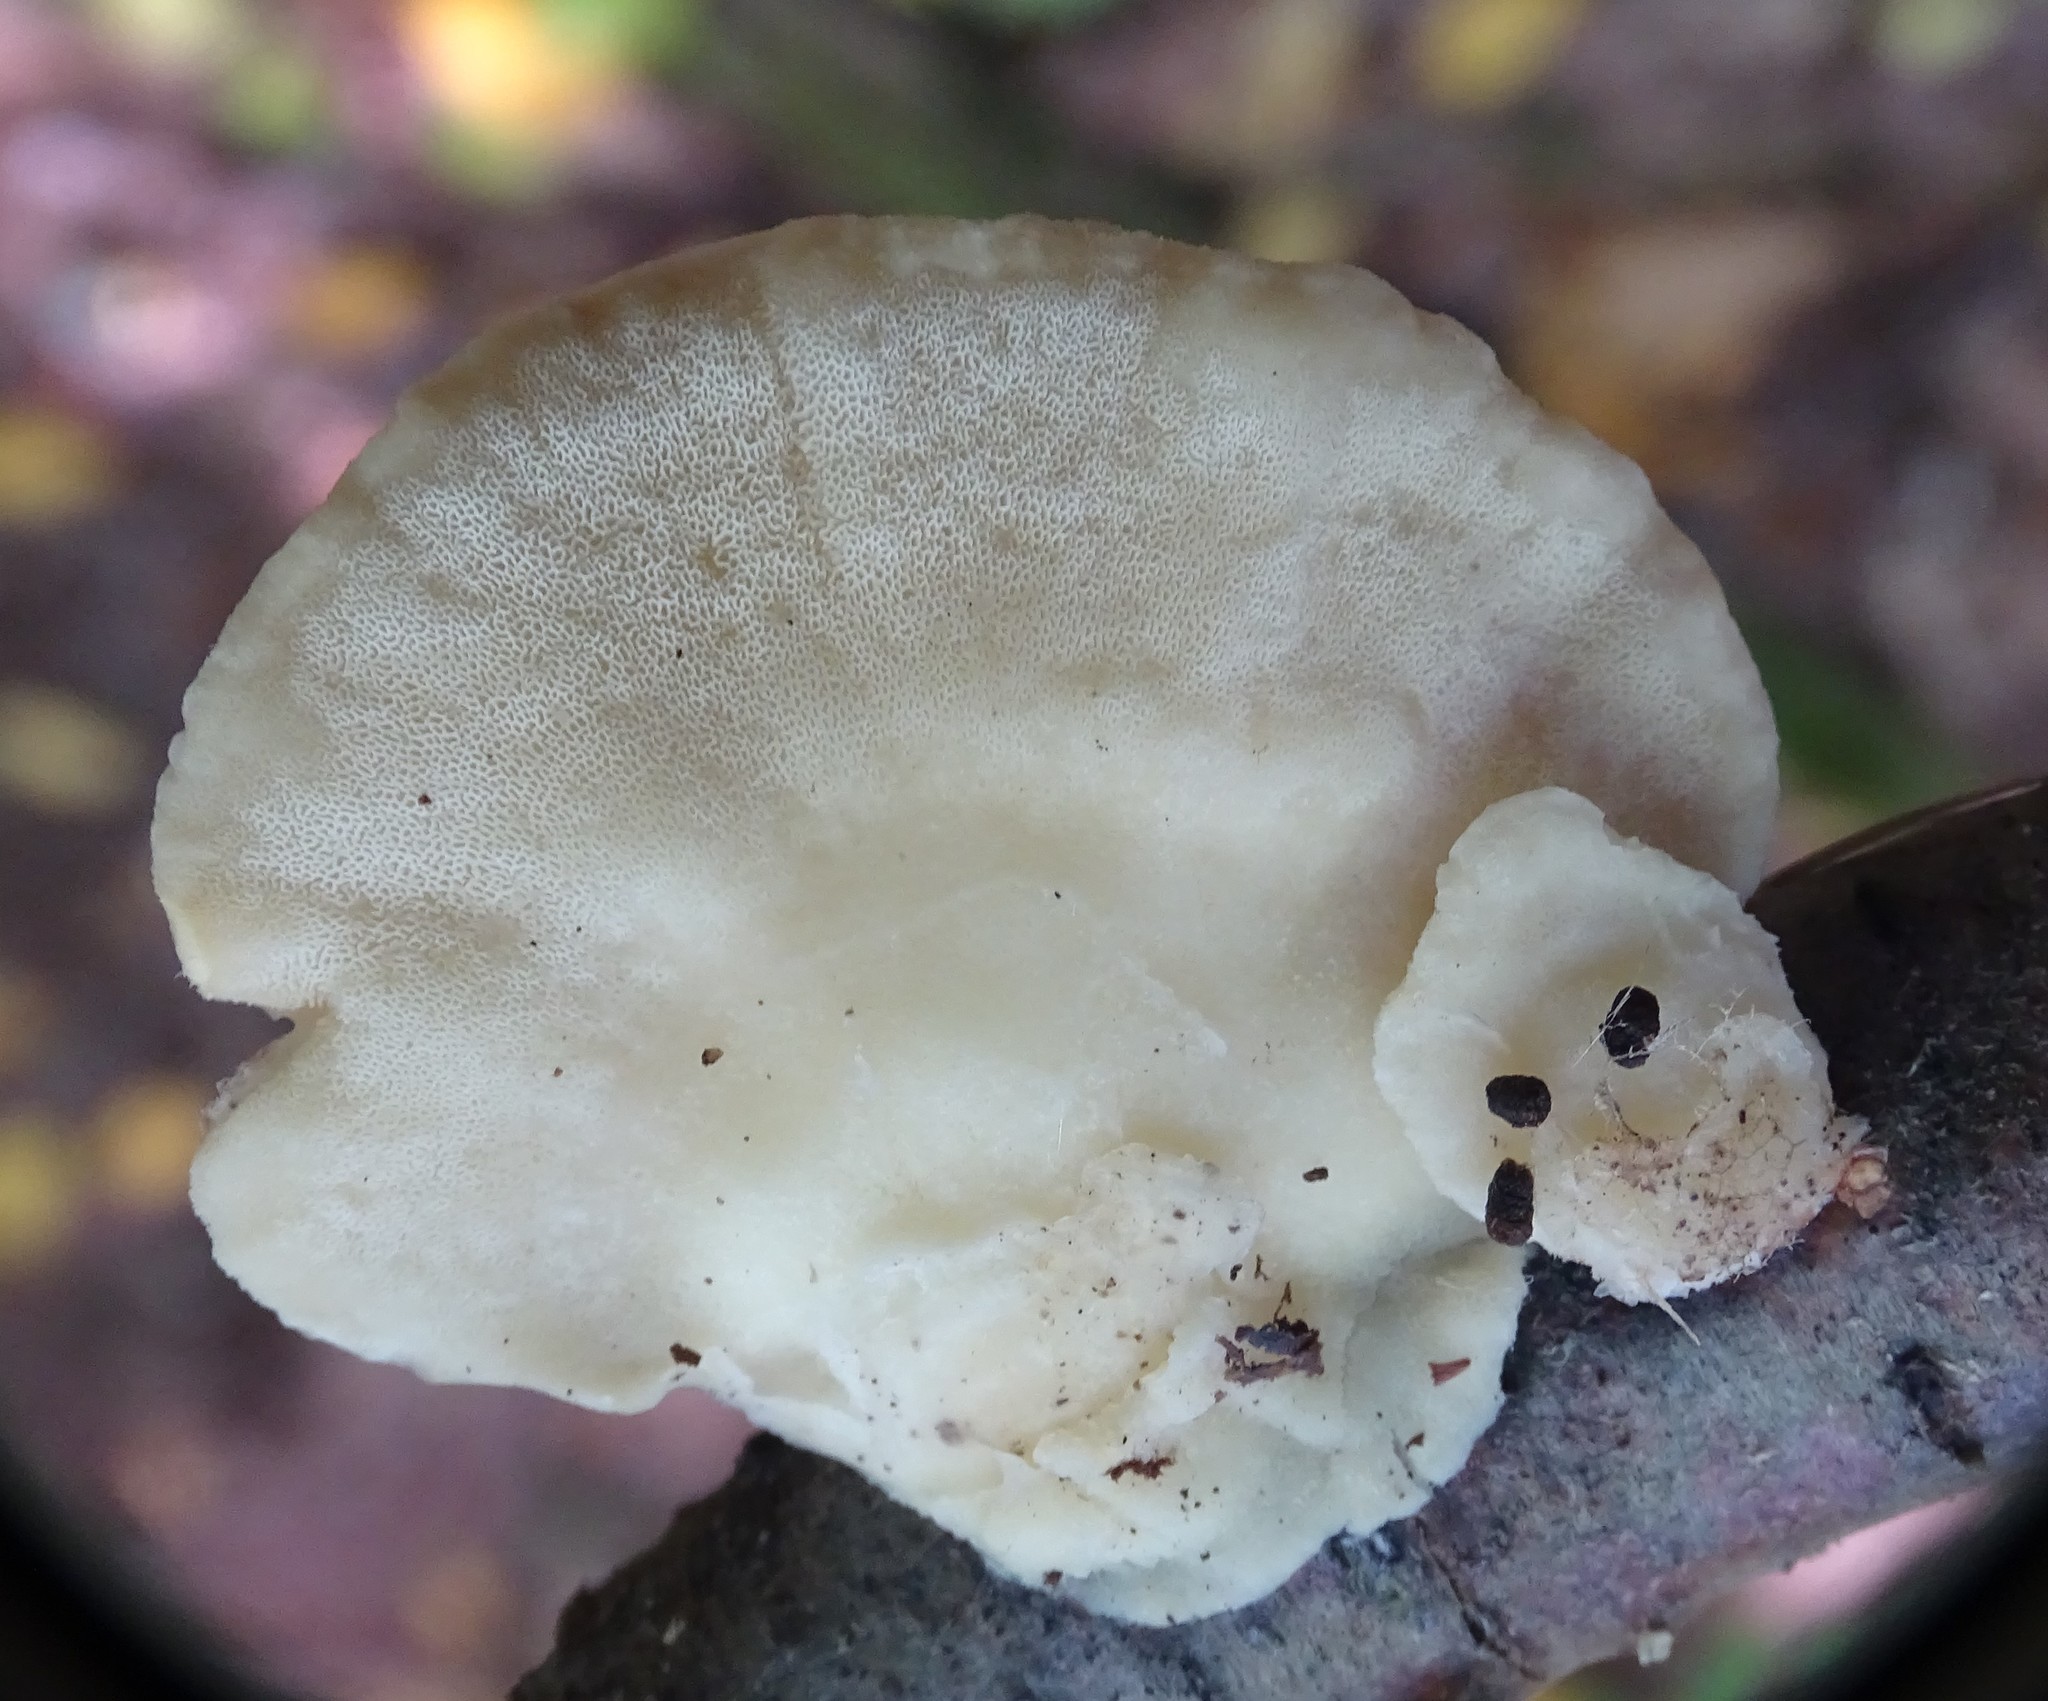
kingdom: Fungi
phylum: Basidiomycota
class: Agaricomycetes
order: Polyporales
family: Incrustoporiaceae
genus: Tyromyces
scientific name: Tyromyces chioneus
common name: White cheese polypore
